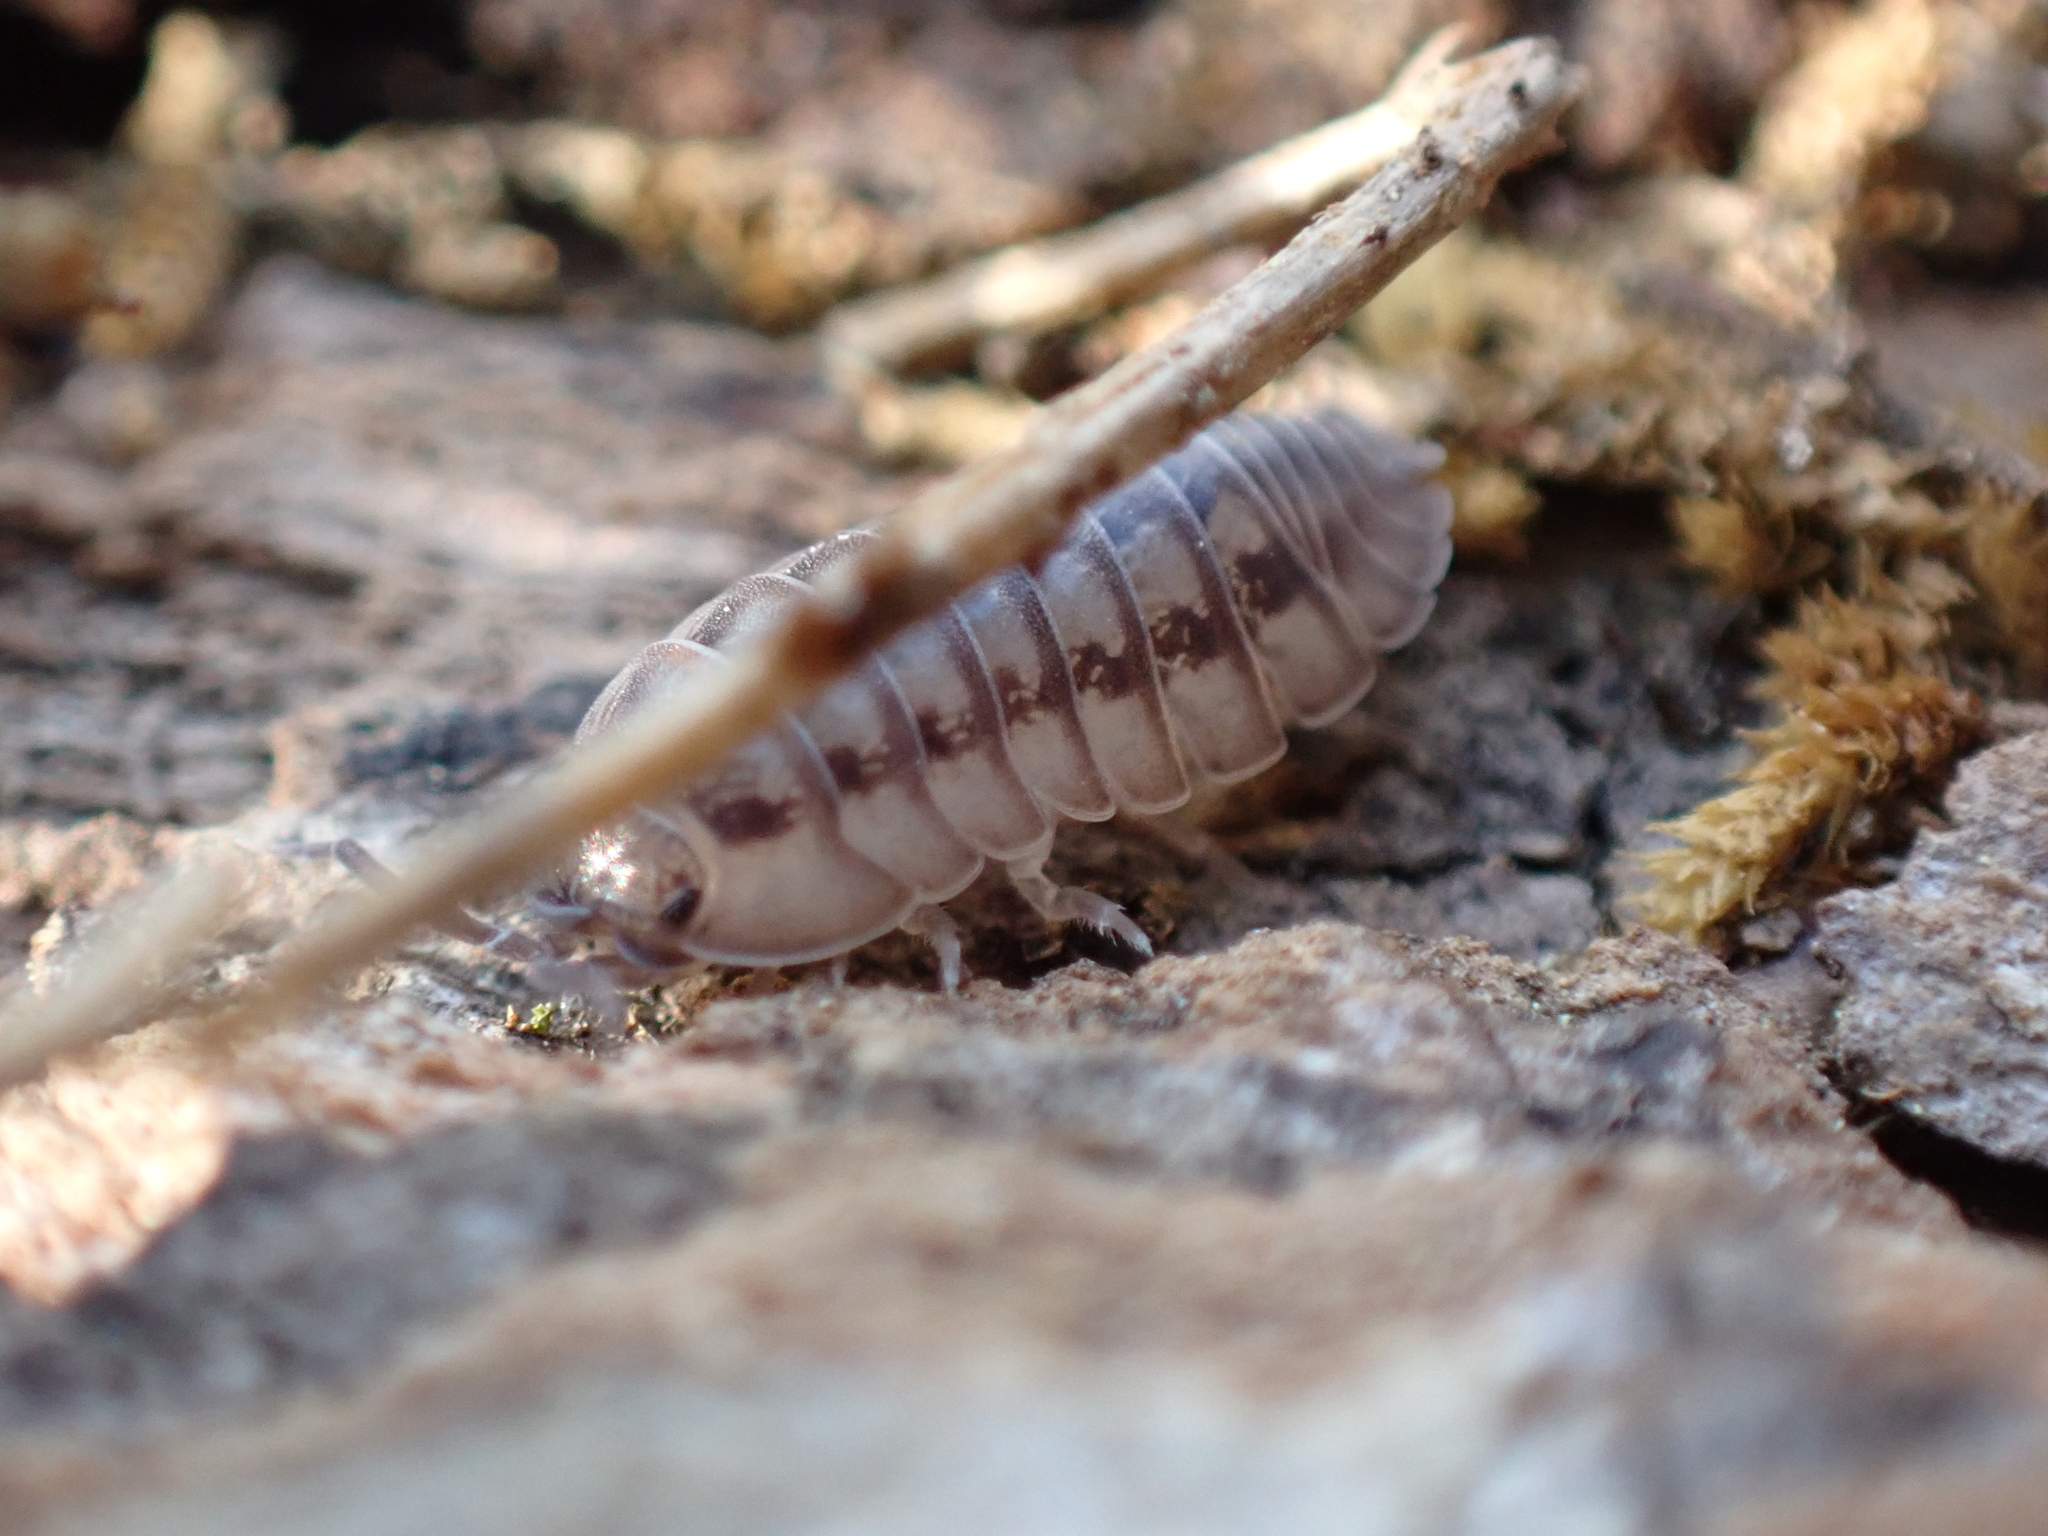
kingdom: Animalia
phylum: Arthropoda
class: Malacostraca
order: Isopoda
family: Armadillidiidae
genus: Armadillidium
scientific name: Armadillidium nasatum
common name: Isopod
